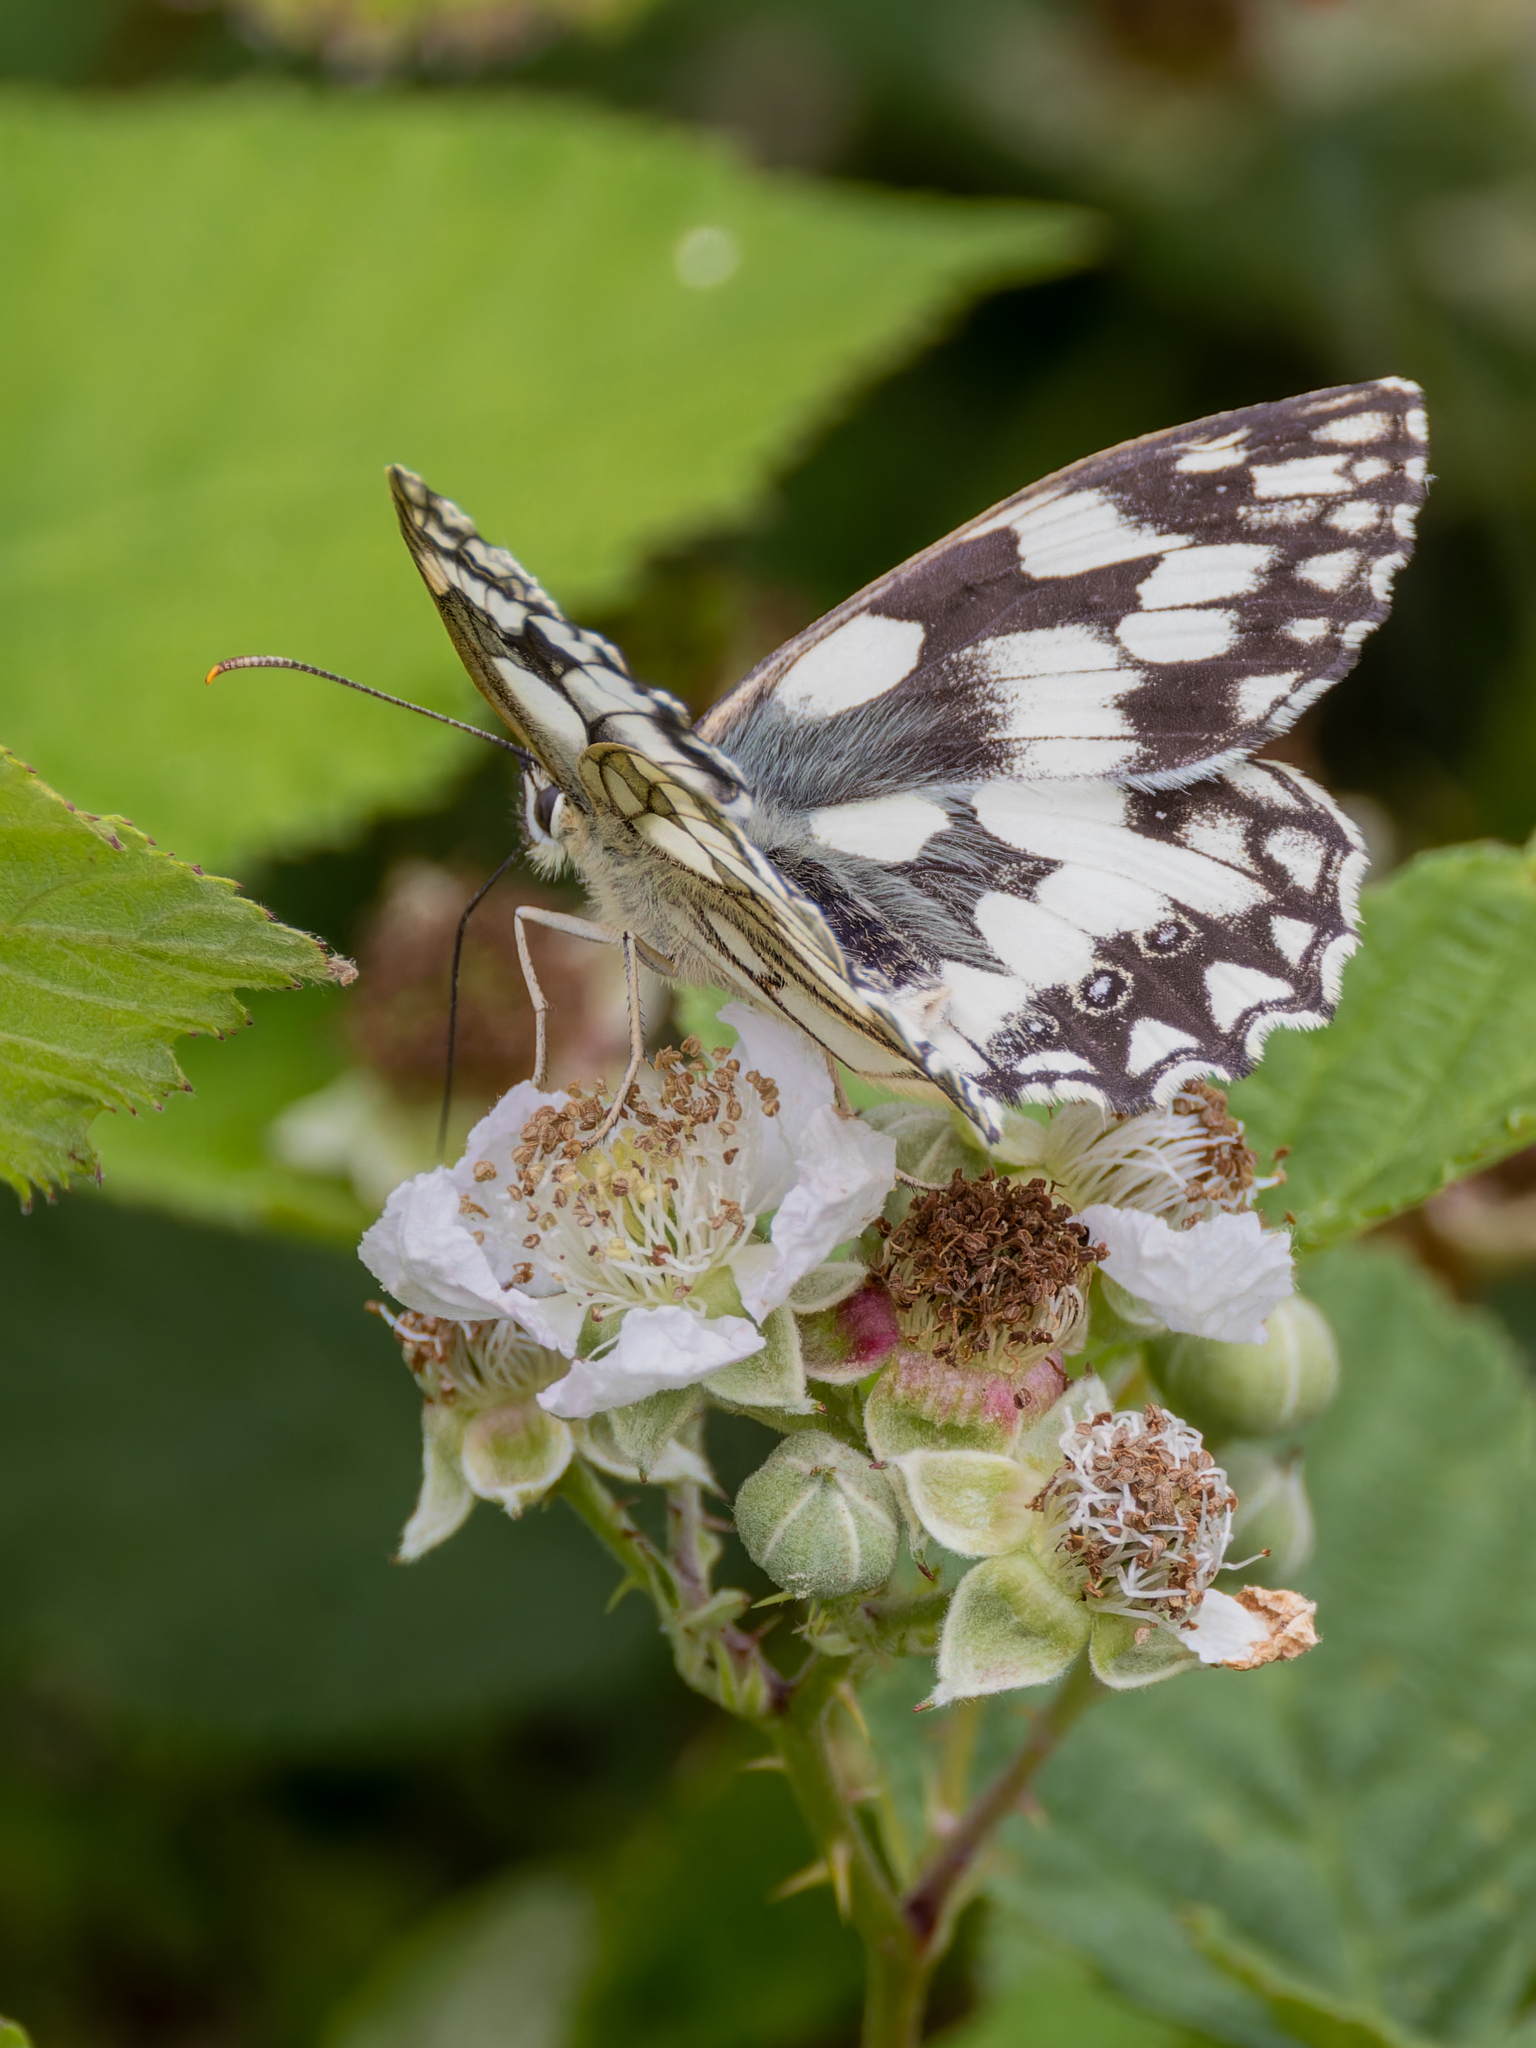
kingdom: Animalia
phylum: Arthropoda
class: Insecta
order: Lepidoptera
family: Nymphalidae
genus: Melanargia
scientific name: Melanargia galathea
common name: Marbled white
